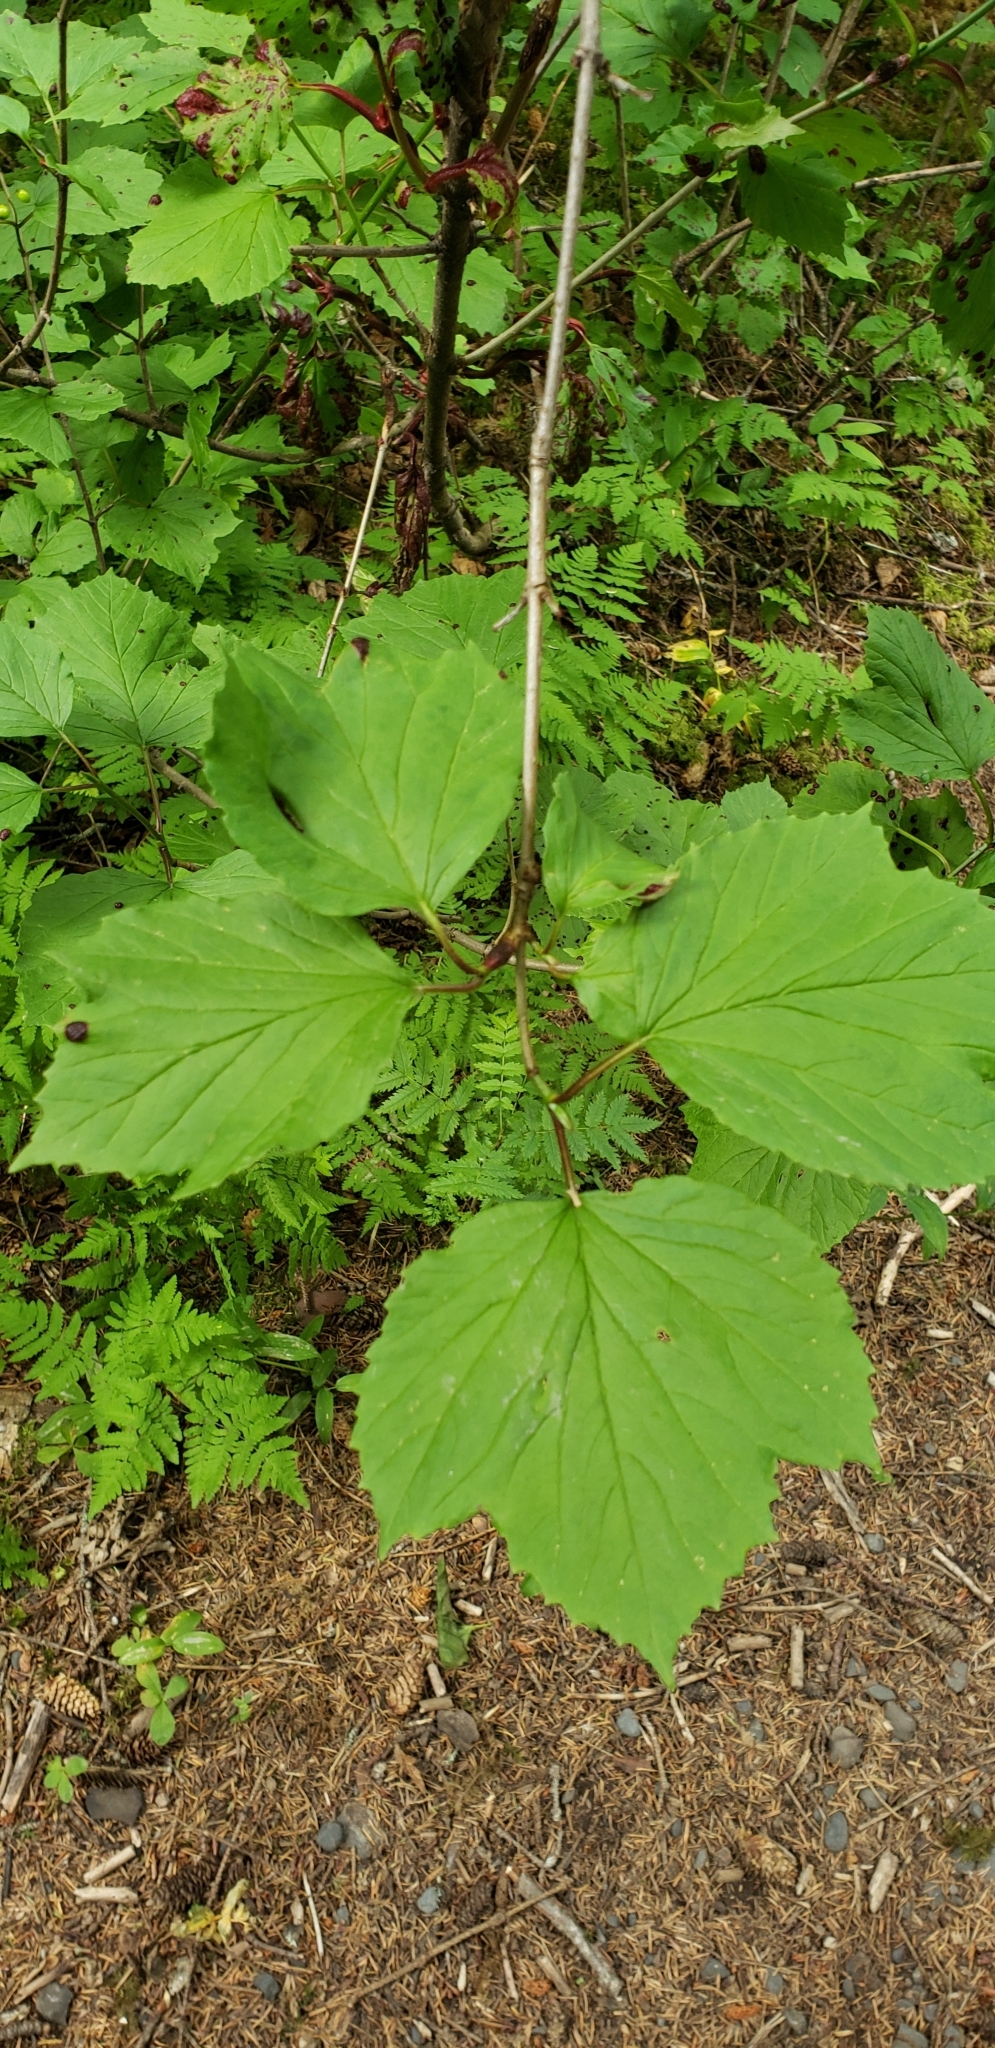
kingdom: Plantae
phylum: Tracheophyta
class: Magnoliopsida
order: Dipsacales
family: Viburnaceae
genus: Viburnum
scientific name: Viburnum edule
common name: Mooseberry
